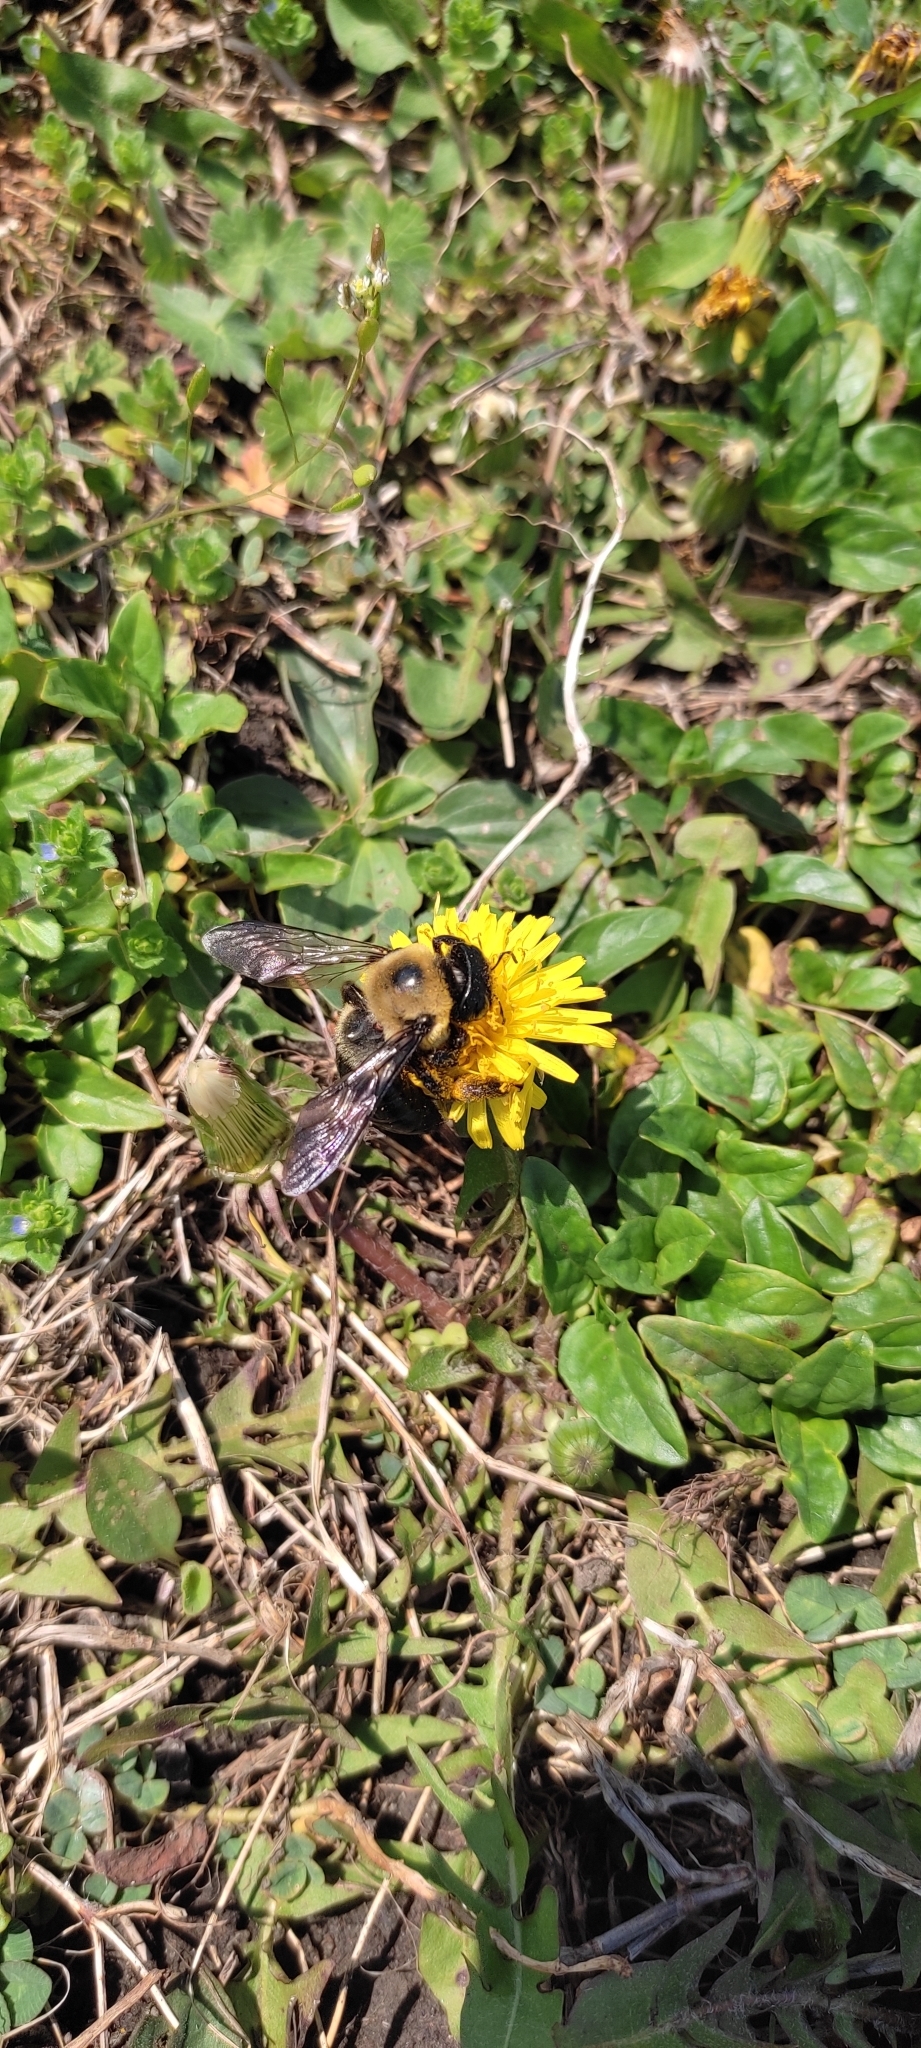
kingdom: Animalia
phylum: Arthropoda
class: Insecta
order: Hymenoptera
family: Apidae
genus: Xylocopa
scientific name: Xylocopa virginica
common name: Carpenter bee
